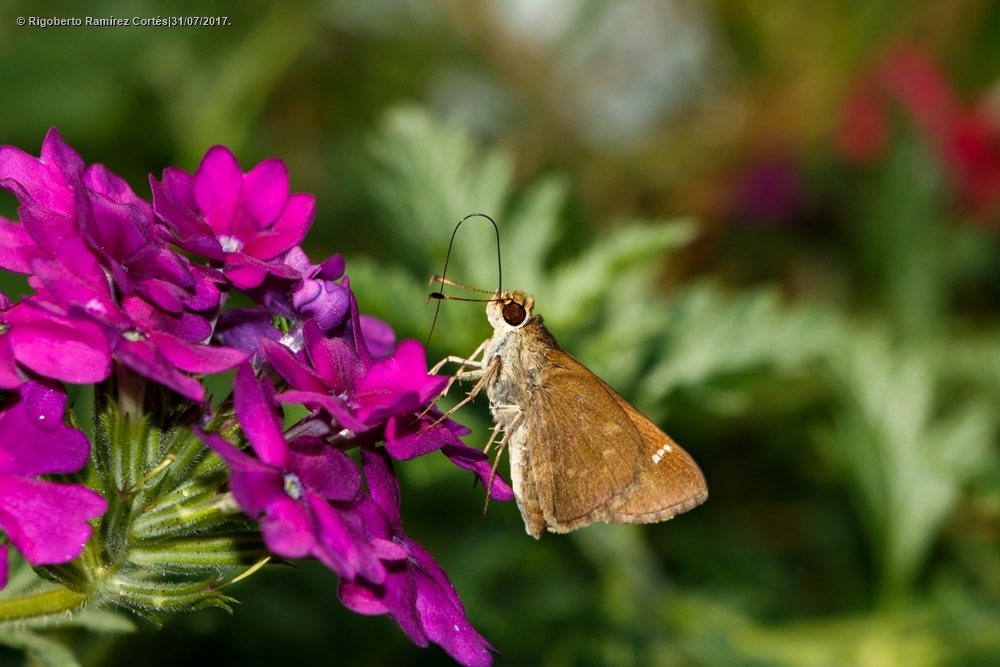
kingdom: Animalia
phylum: Arthropoda
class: Insecta
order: Lepidoptera
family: Hesperiidae
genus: Lerema
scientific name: Lerema ancillaris
